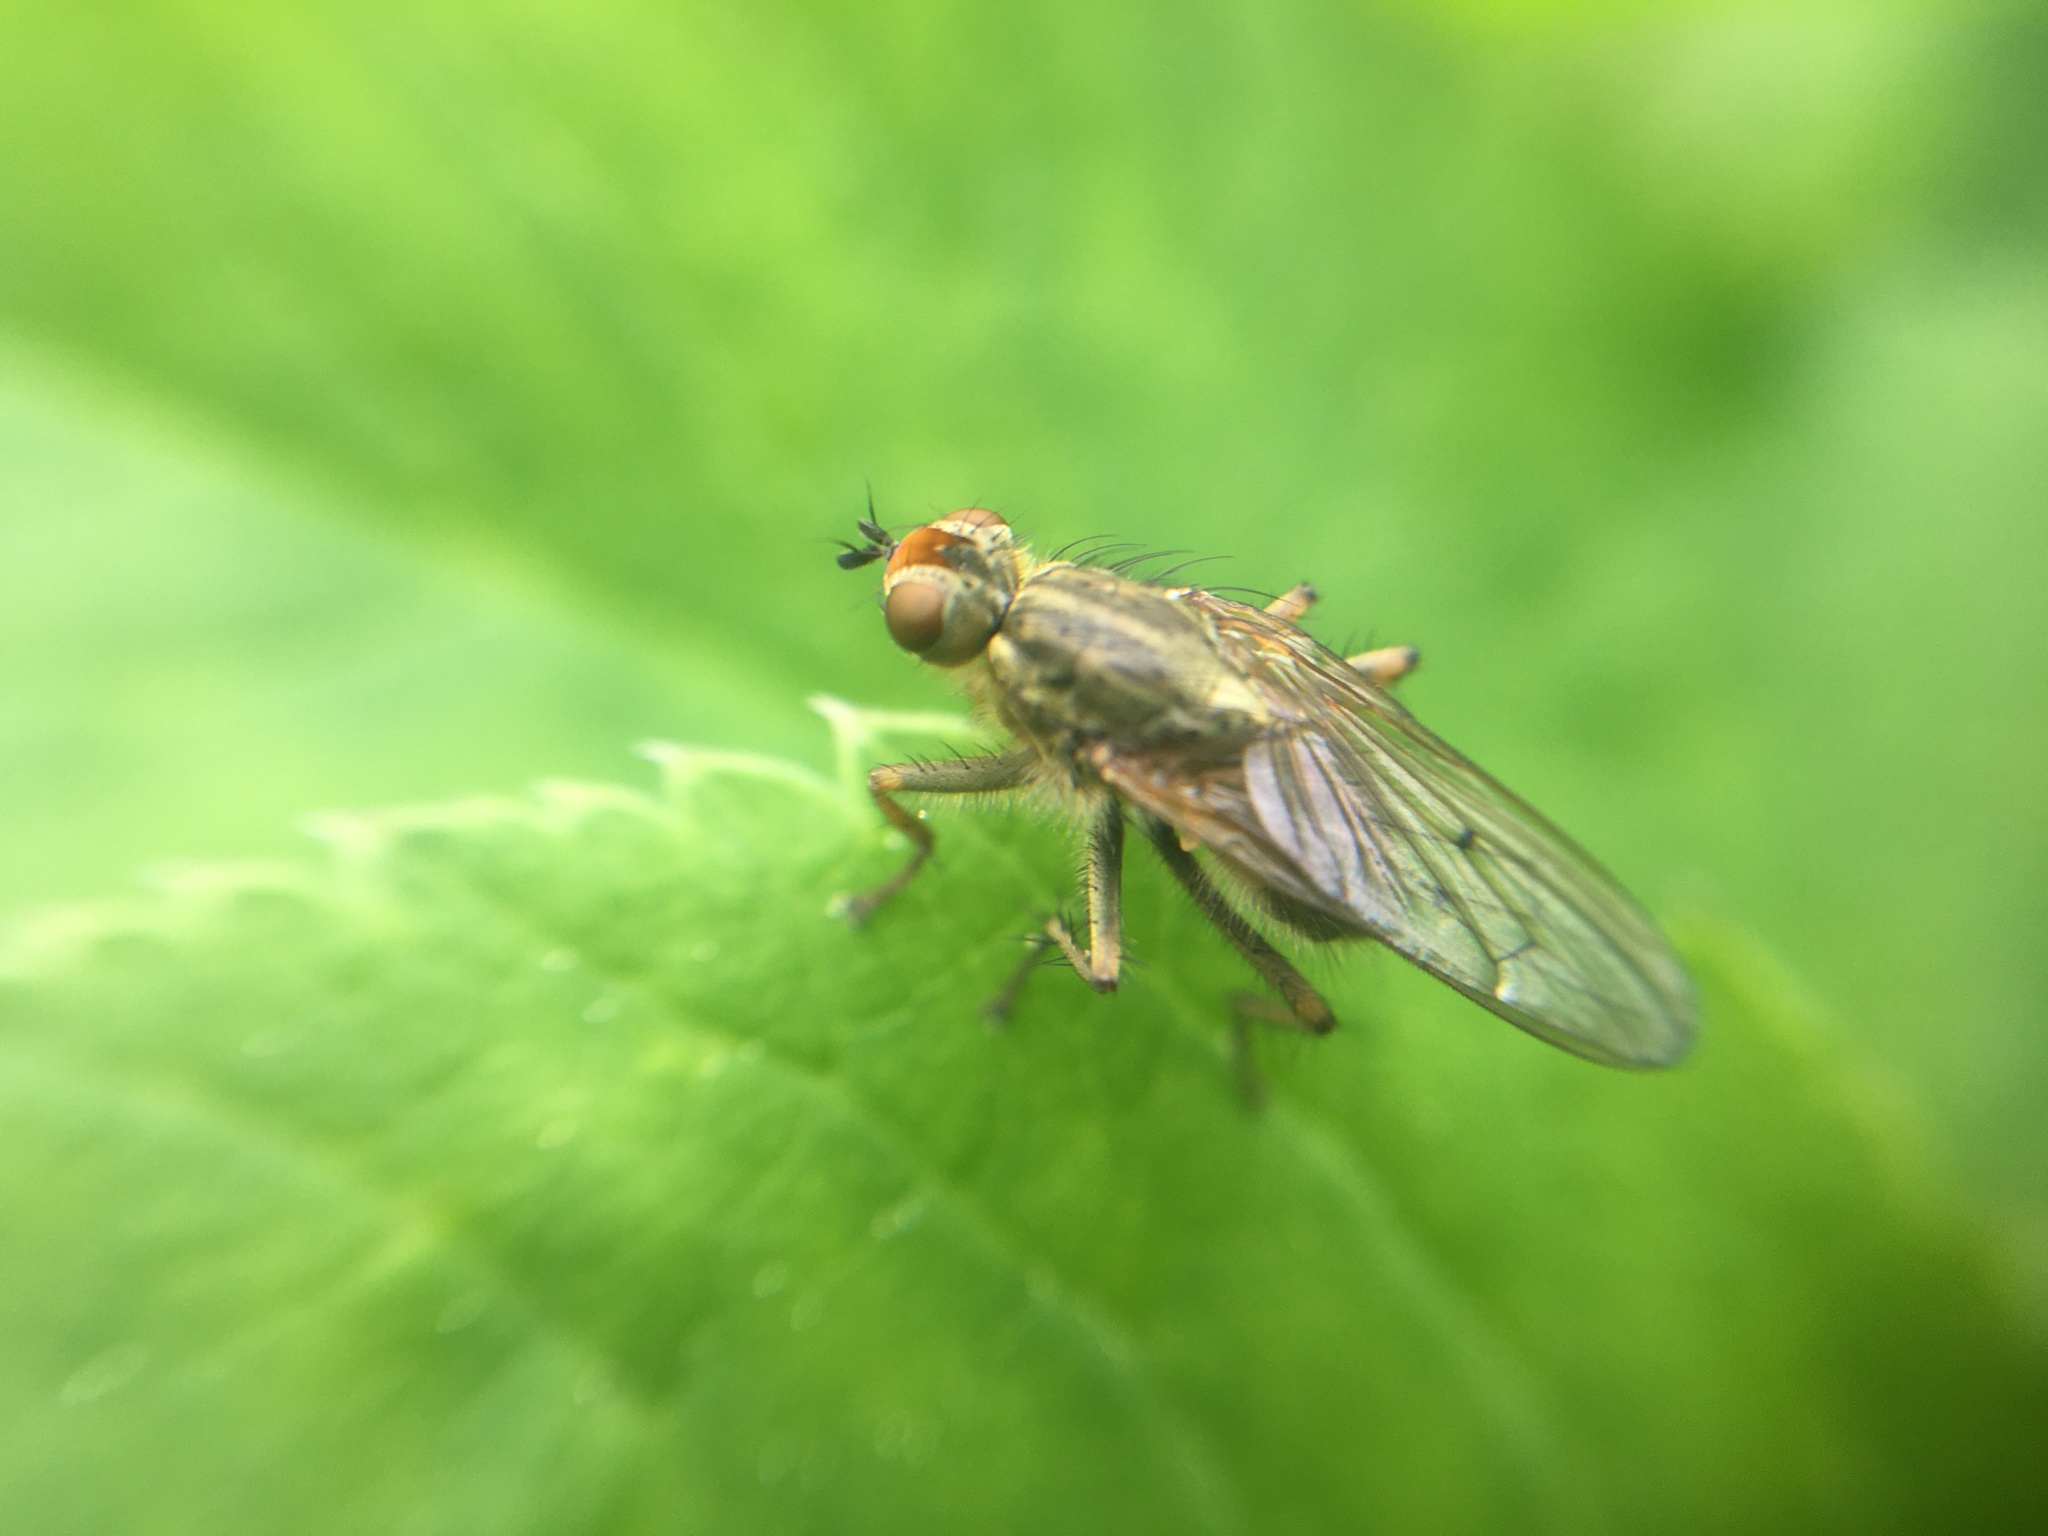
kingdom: Animalia
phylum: Arthropoda
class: Insecta
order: Diptera
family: Scathophagidae
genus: Scathophaga
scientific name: Scathophaga stercoraria
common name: Yellow dung fly
